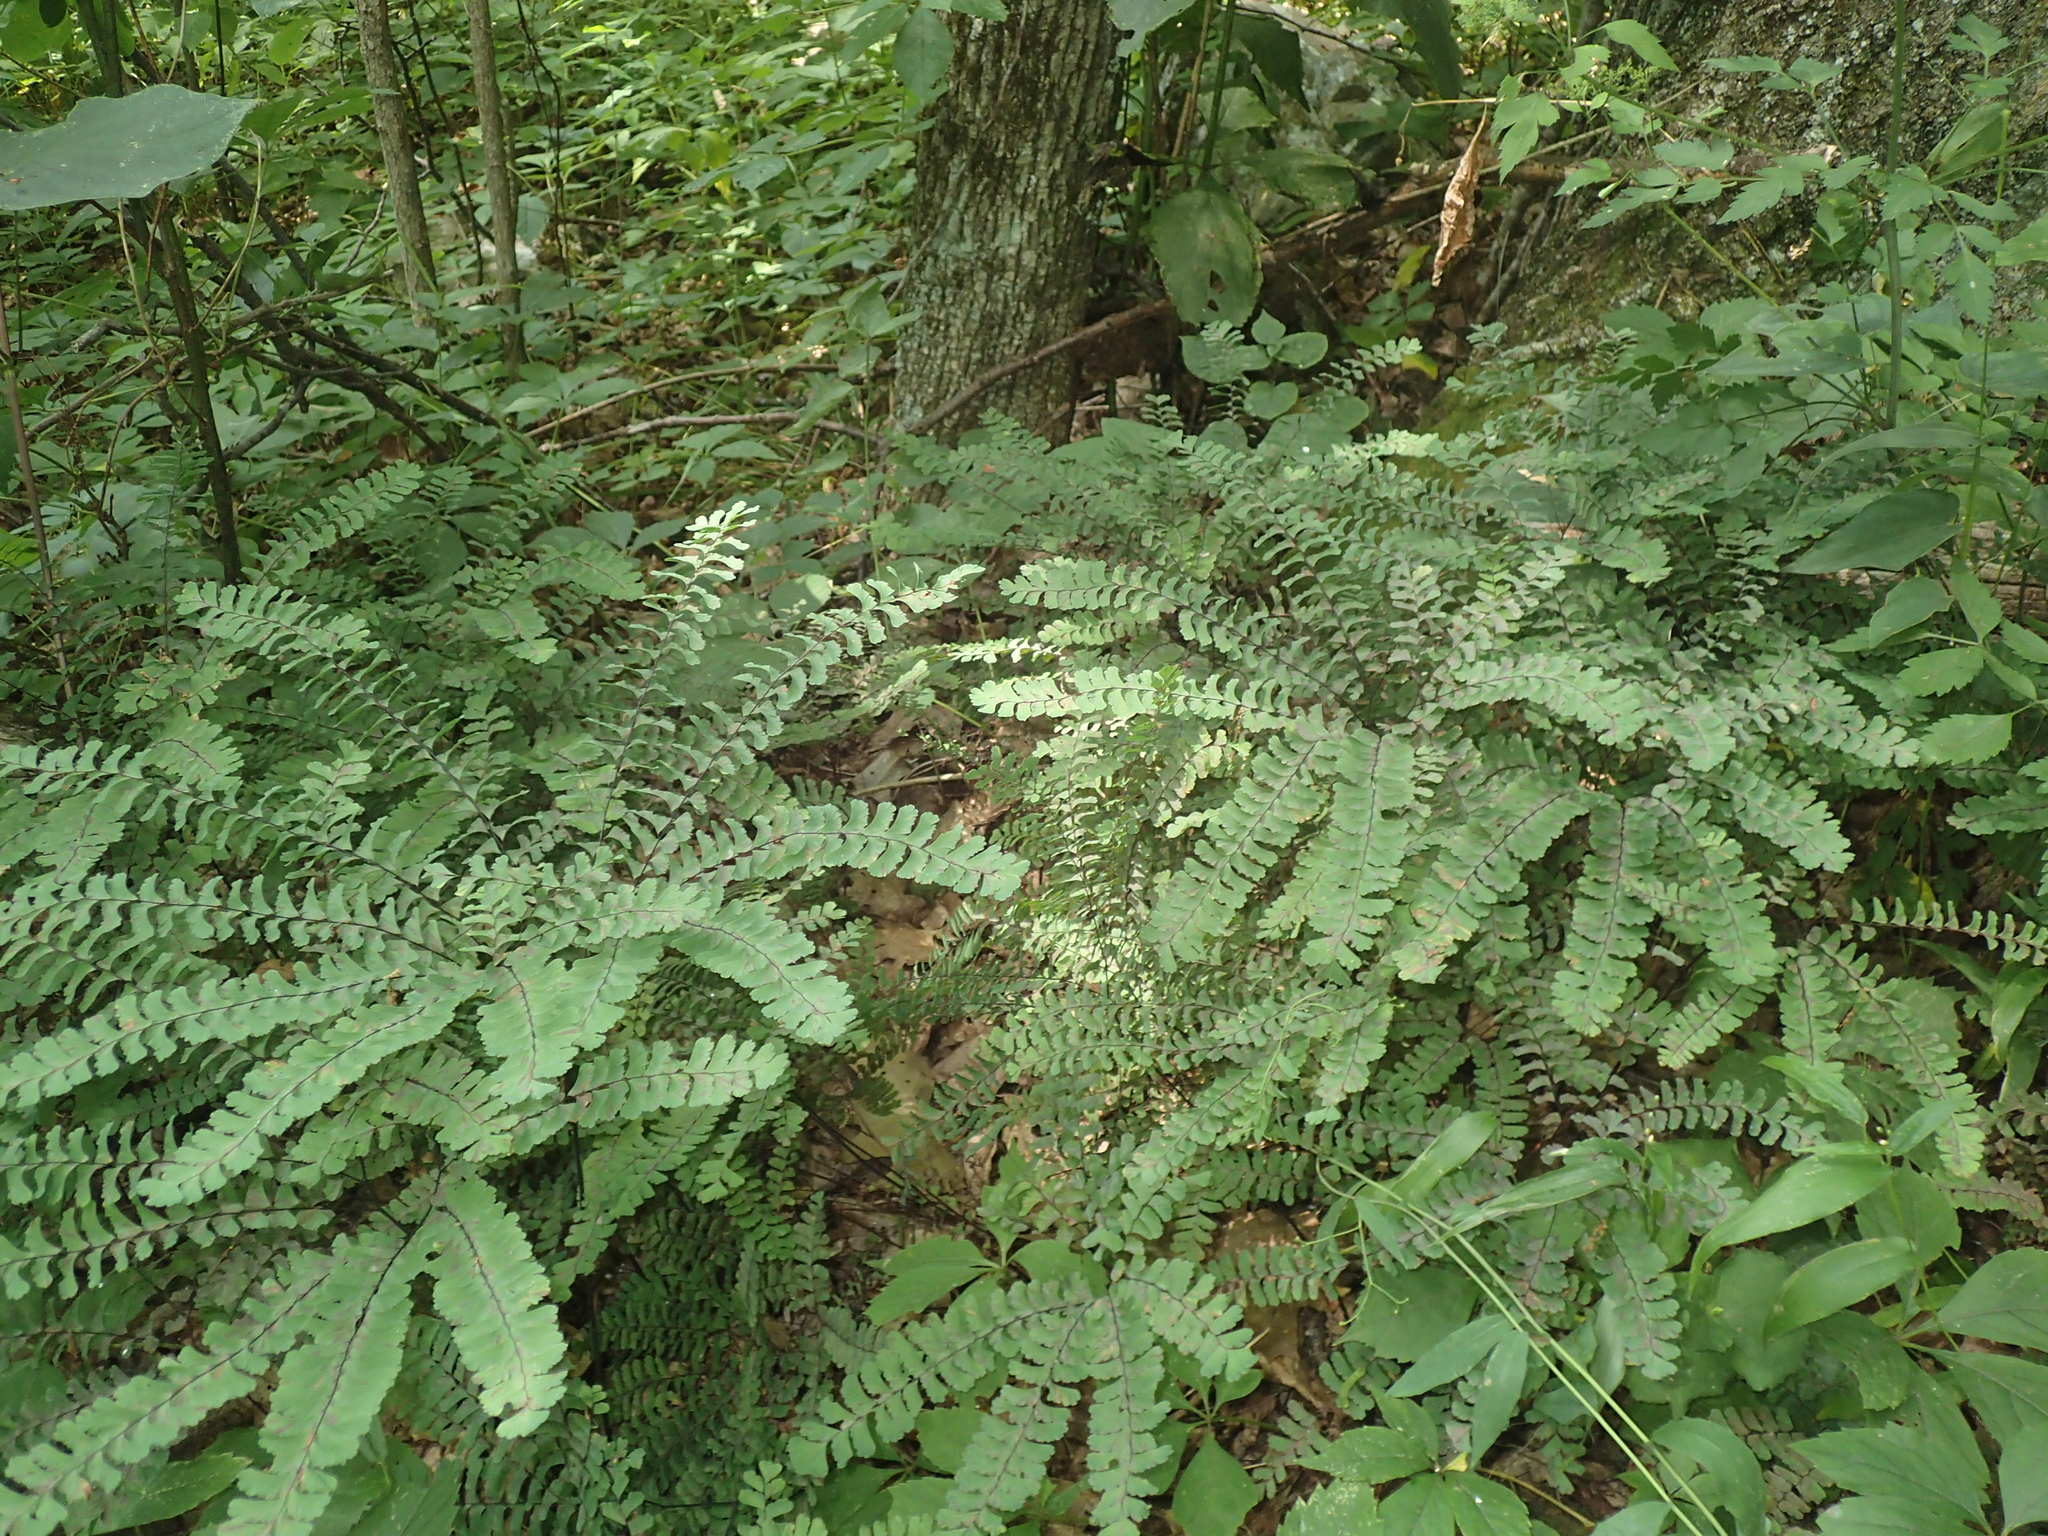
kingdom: Plantae
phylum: Tracheophyta
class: Polypodiopsida
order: Polypodiales
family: Pteridaceae
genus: Adiantum
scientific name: Adiantum pedatum
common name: Five-finger fern
